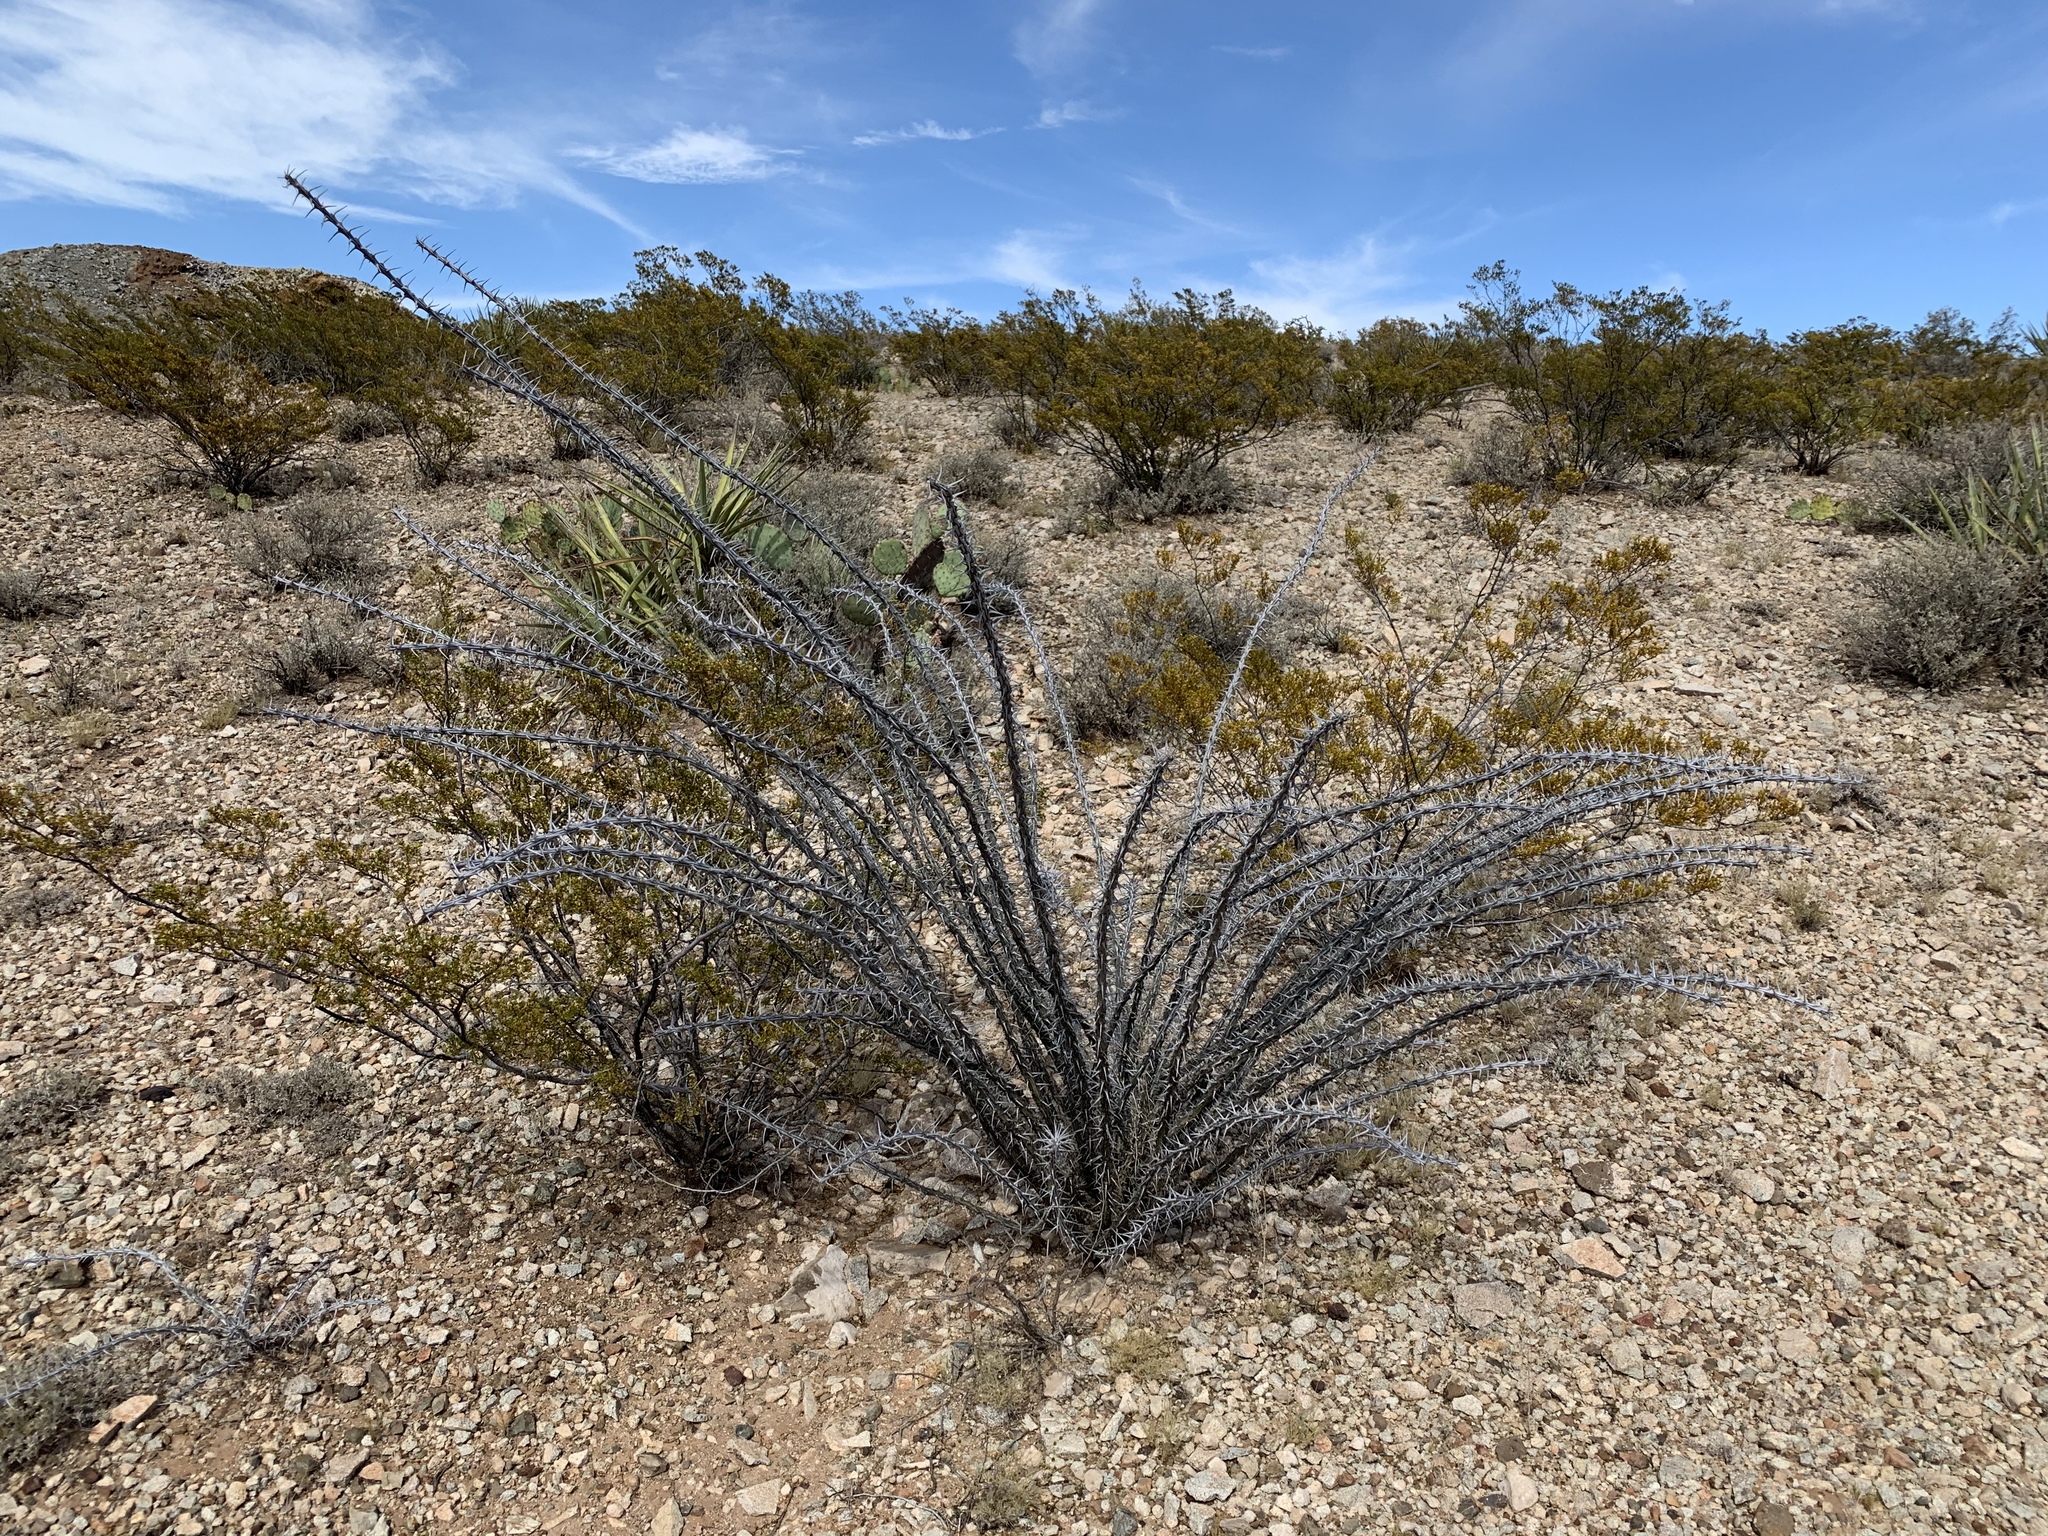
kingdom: Plantae
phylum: Tracheophyta
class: Magnoliopsida
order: Ericales
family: Fouquieriaceae
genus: Fouquieria
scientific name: Fouquieria splendens
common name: Vine-cactus
